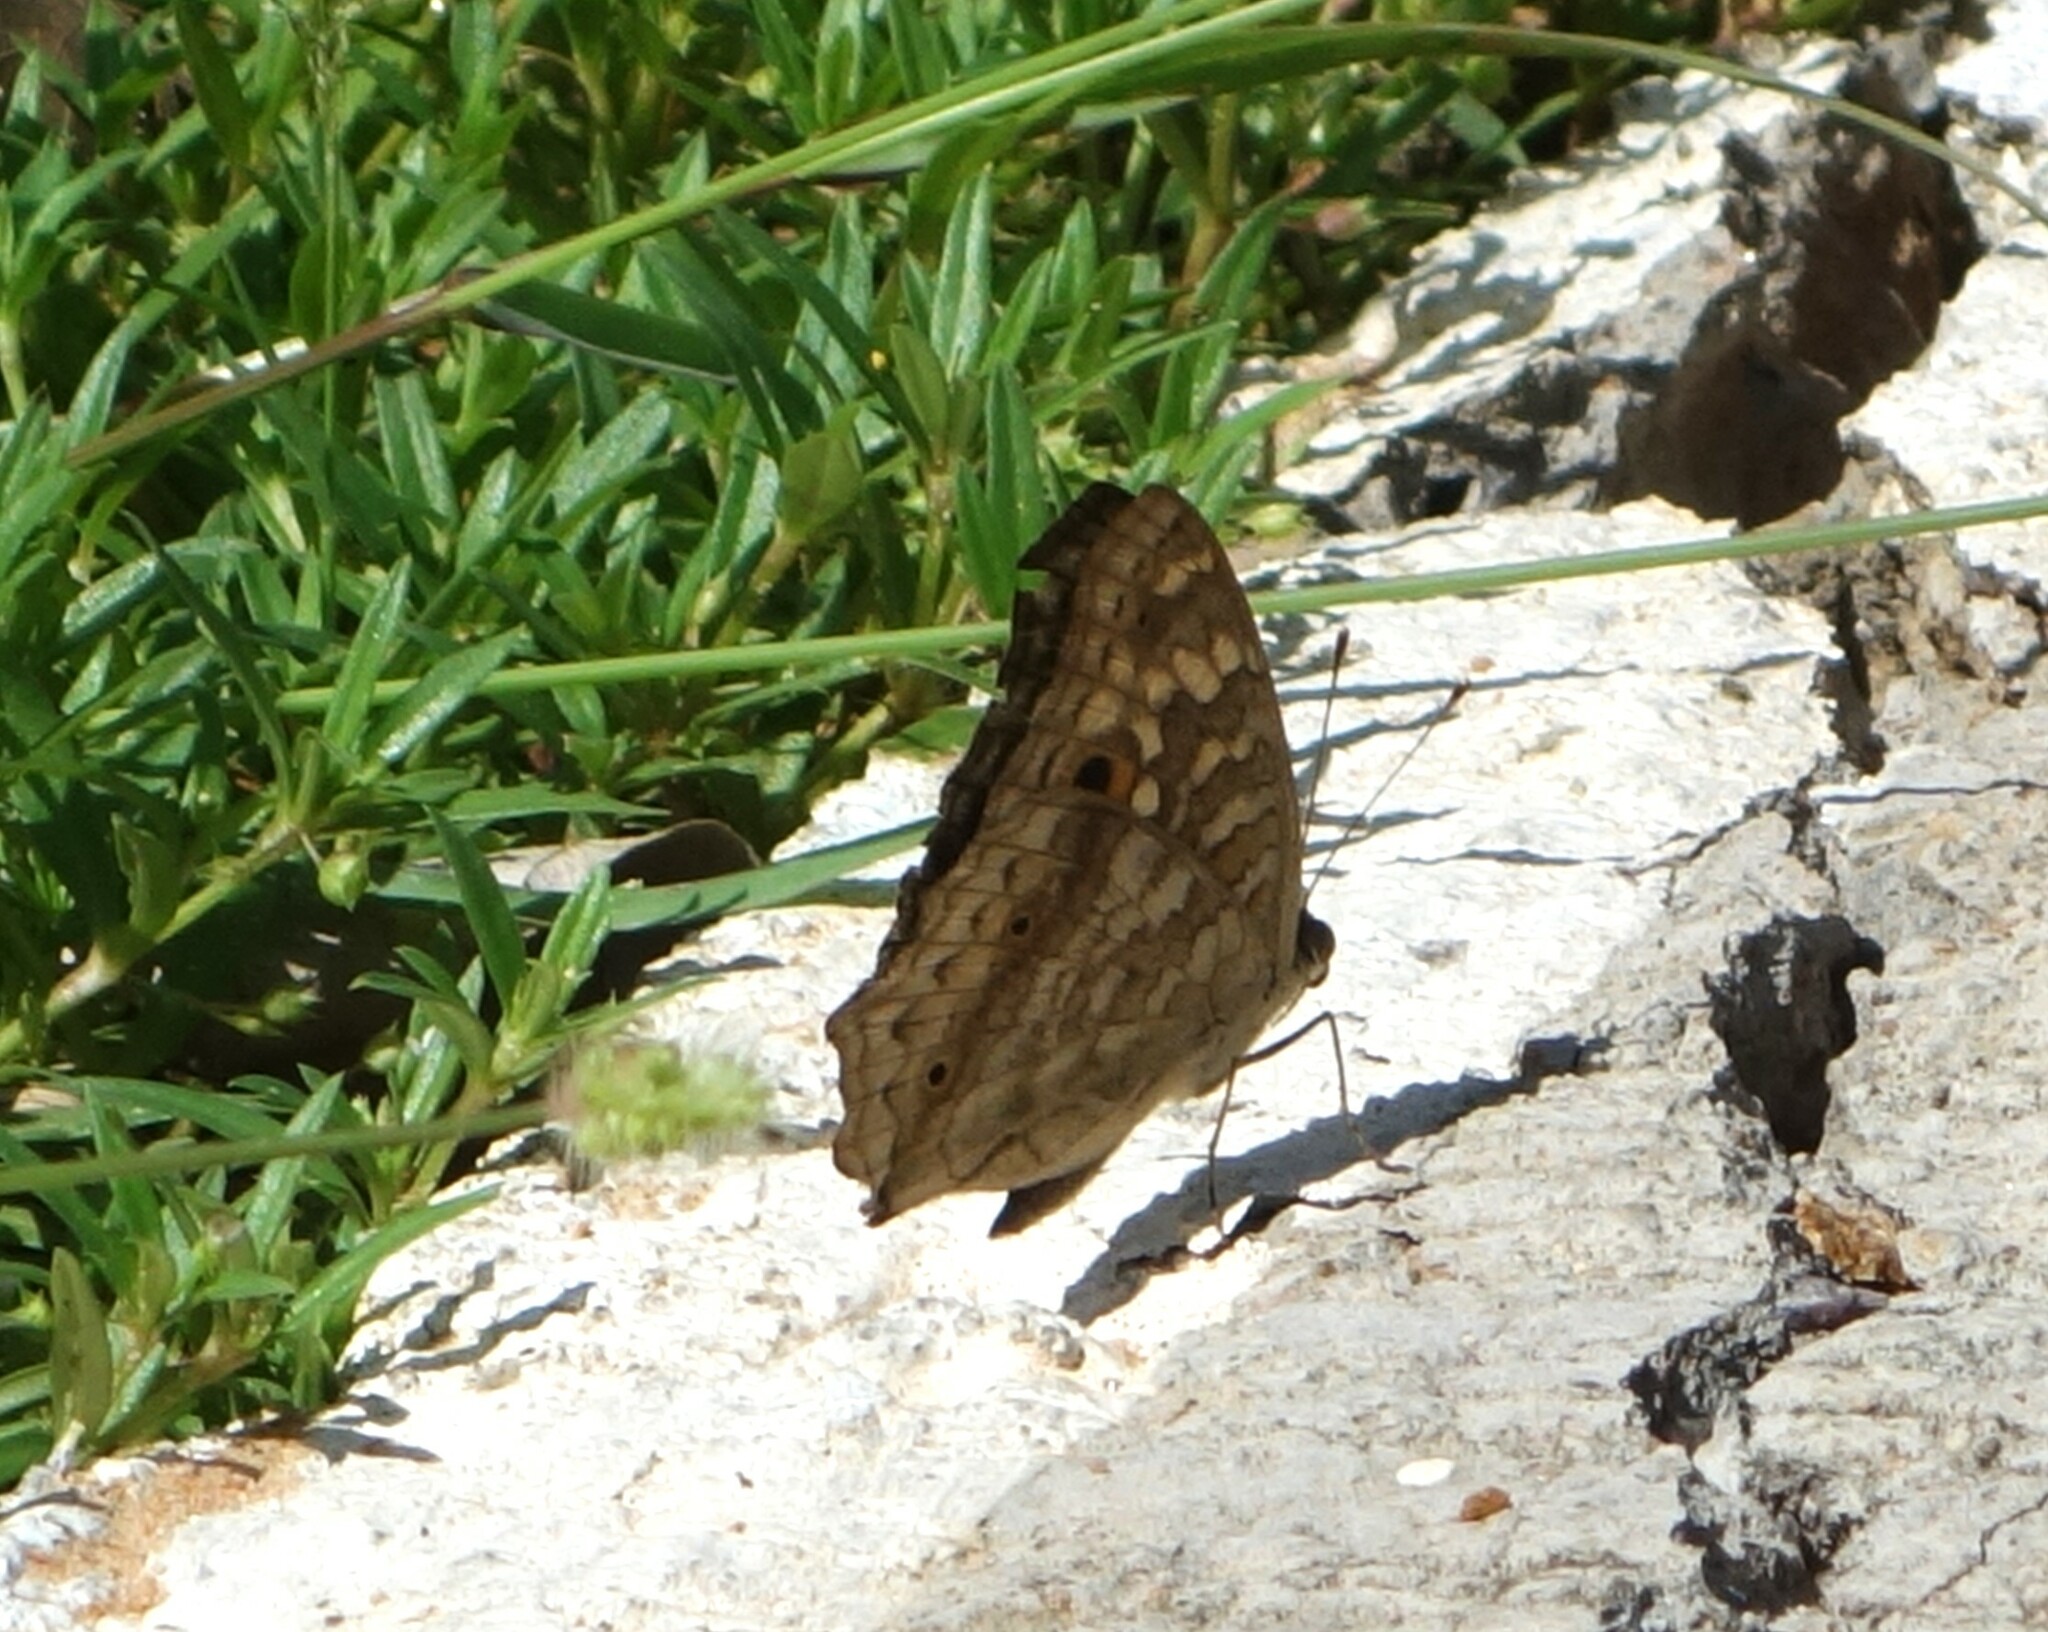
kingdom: Animalia
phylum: Arthropoda
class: Insecta
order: Lepidoptera
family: Nymphalidae
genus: Junonia
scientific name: Junonia lemonias
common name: Lemon pansy
